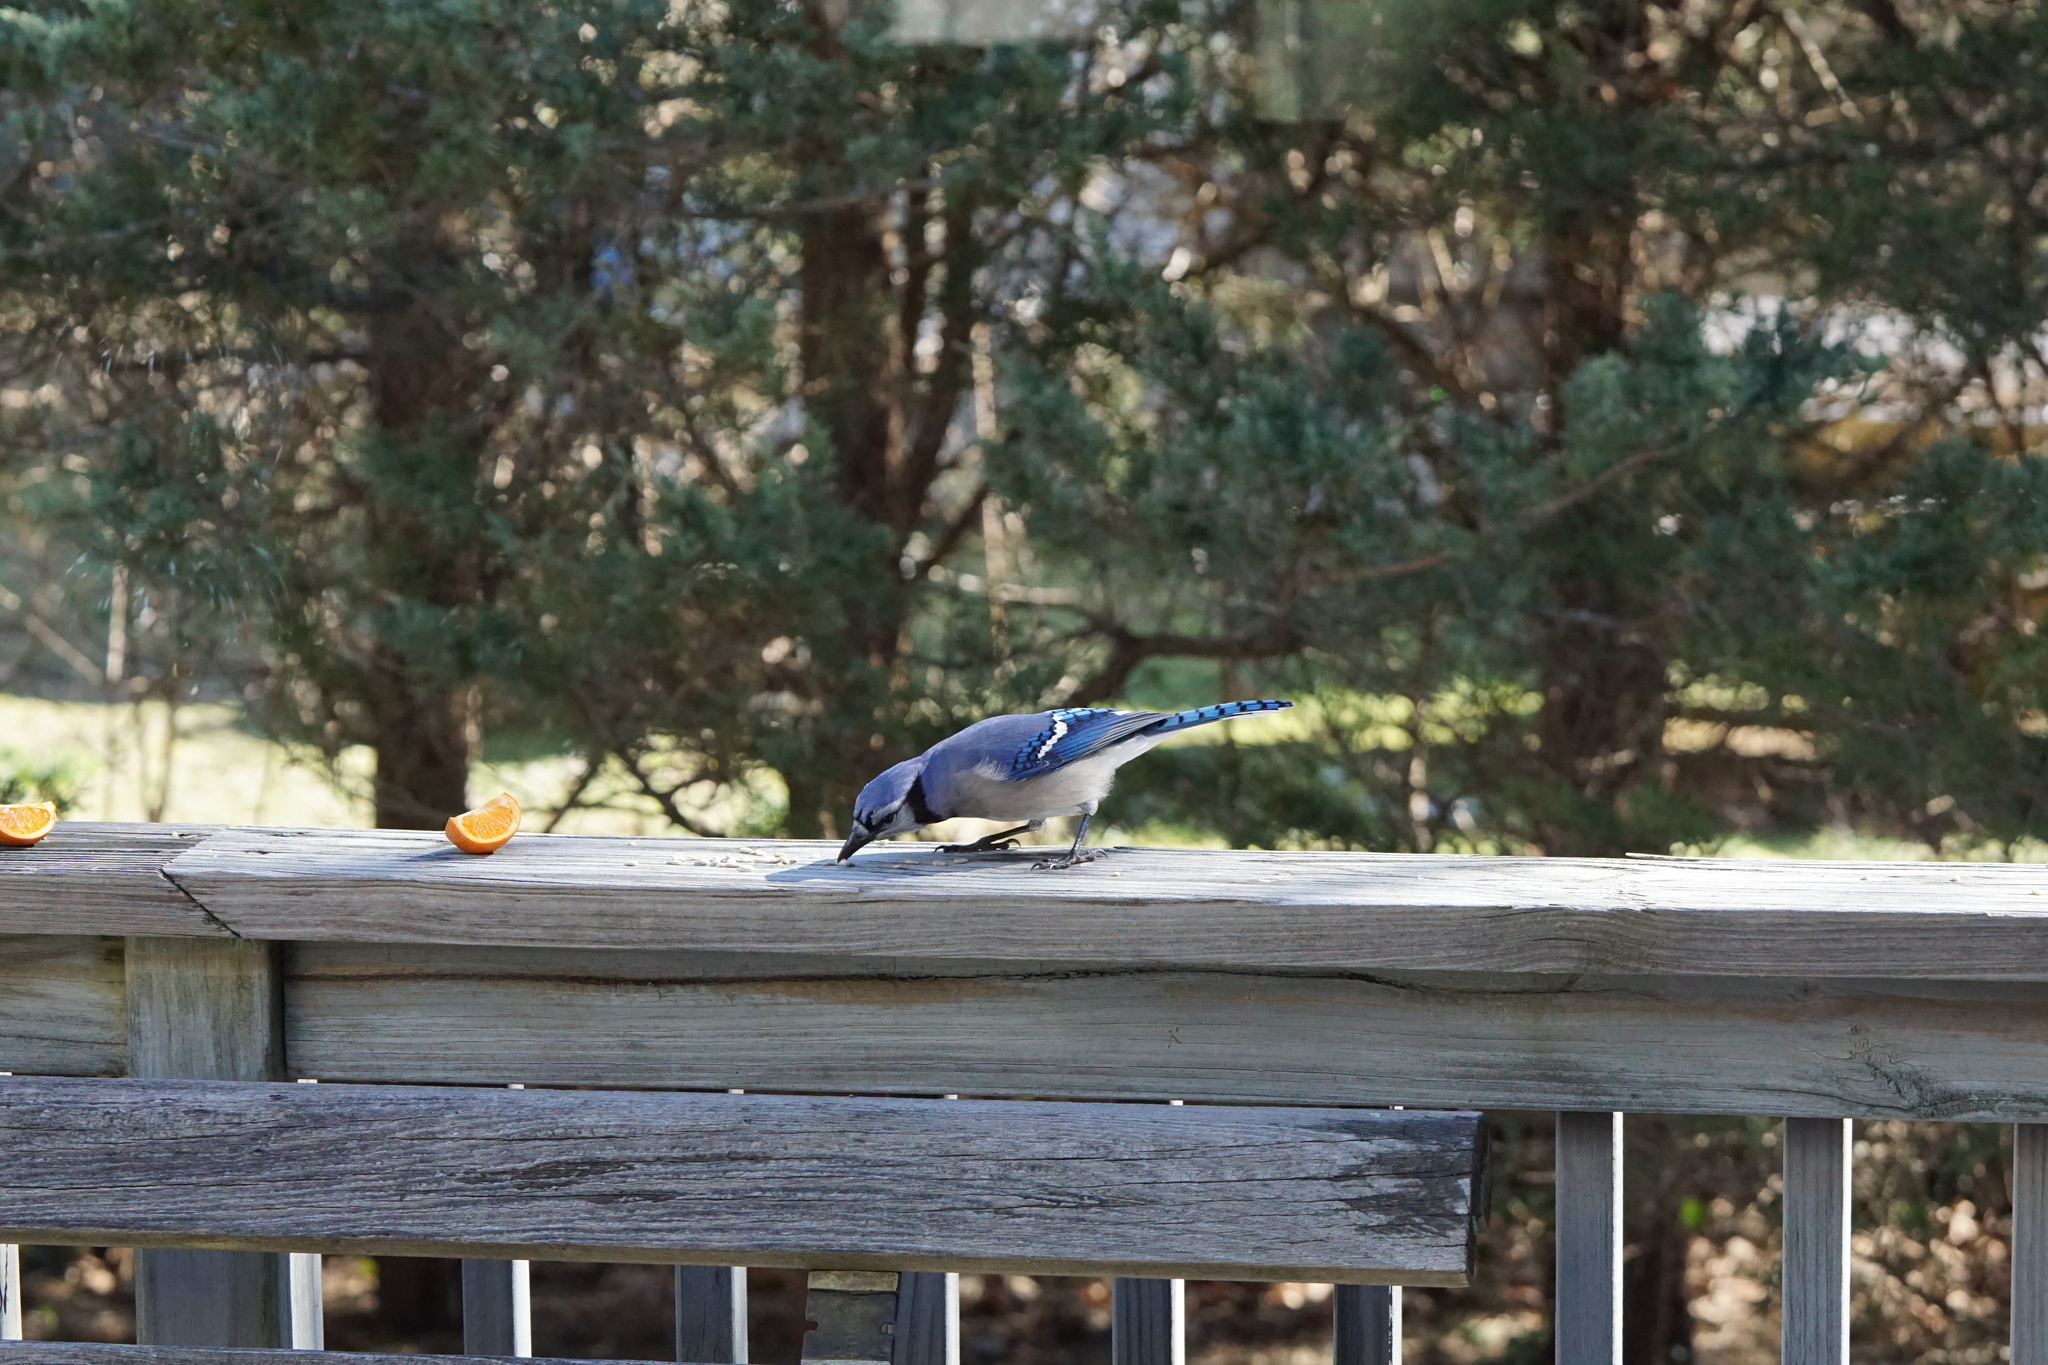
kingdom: Animalia
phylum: Chordata
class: Aves
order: Passeriformes
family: Corvidae
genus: Cyanocitta
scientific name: Cyanocitta cristata
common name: Blue jay
